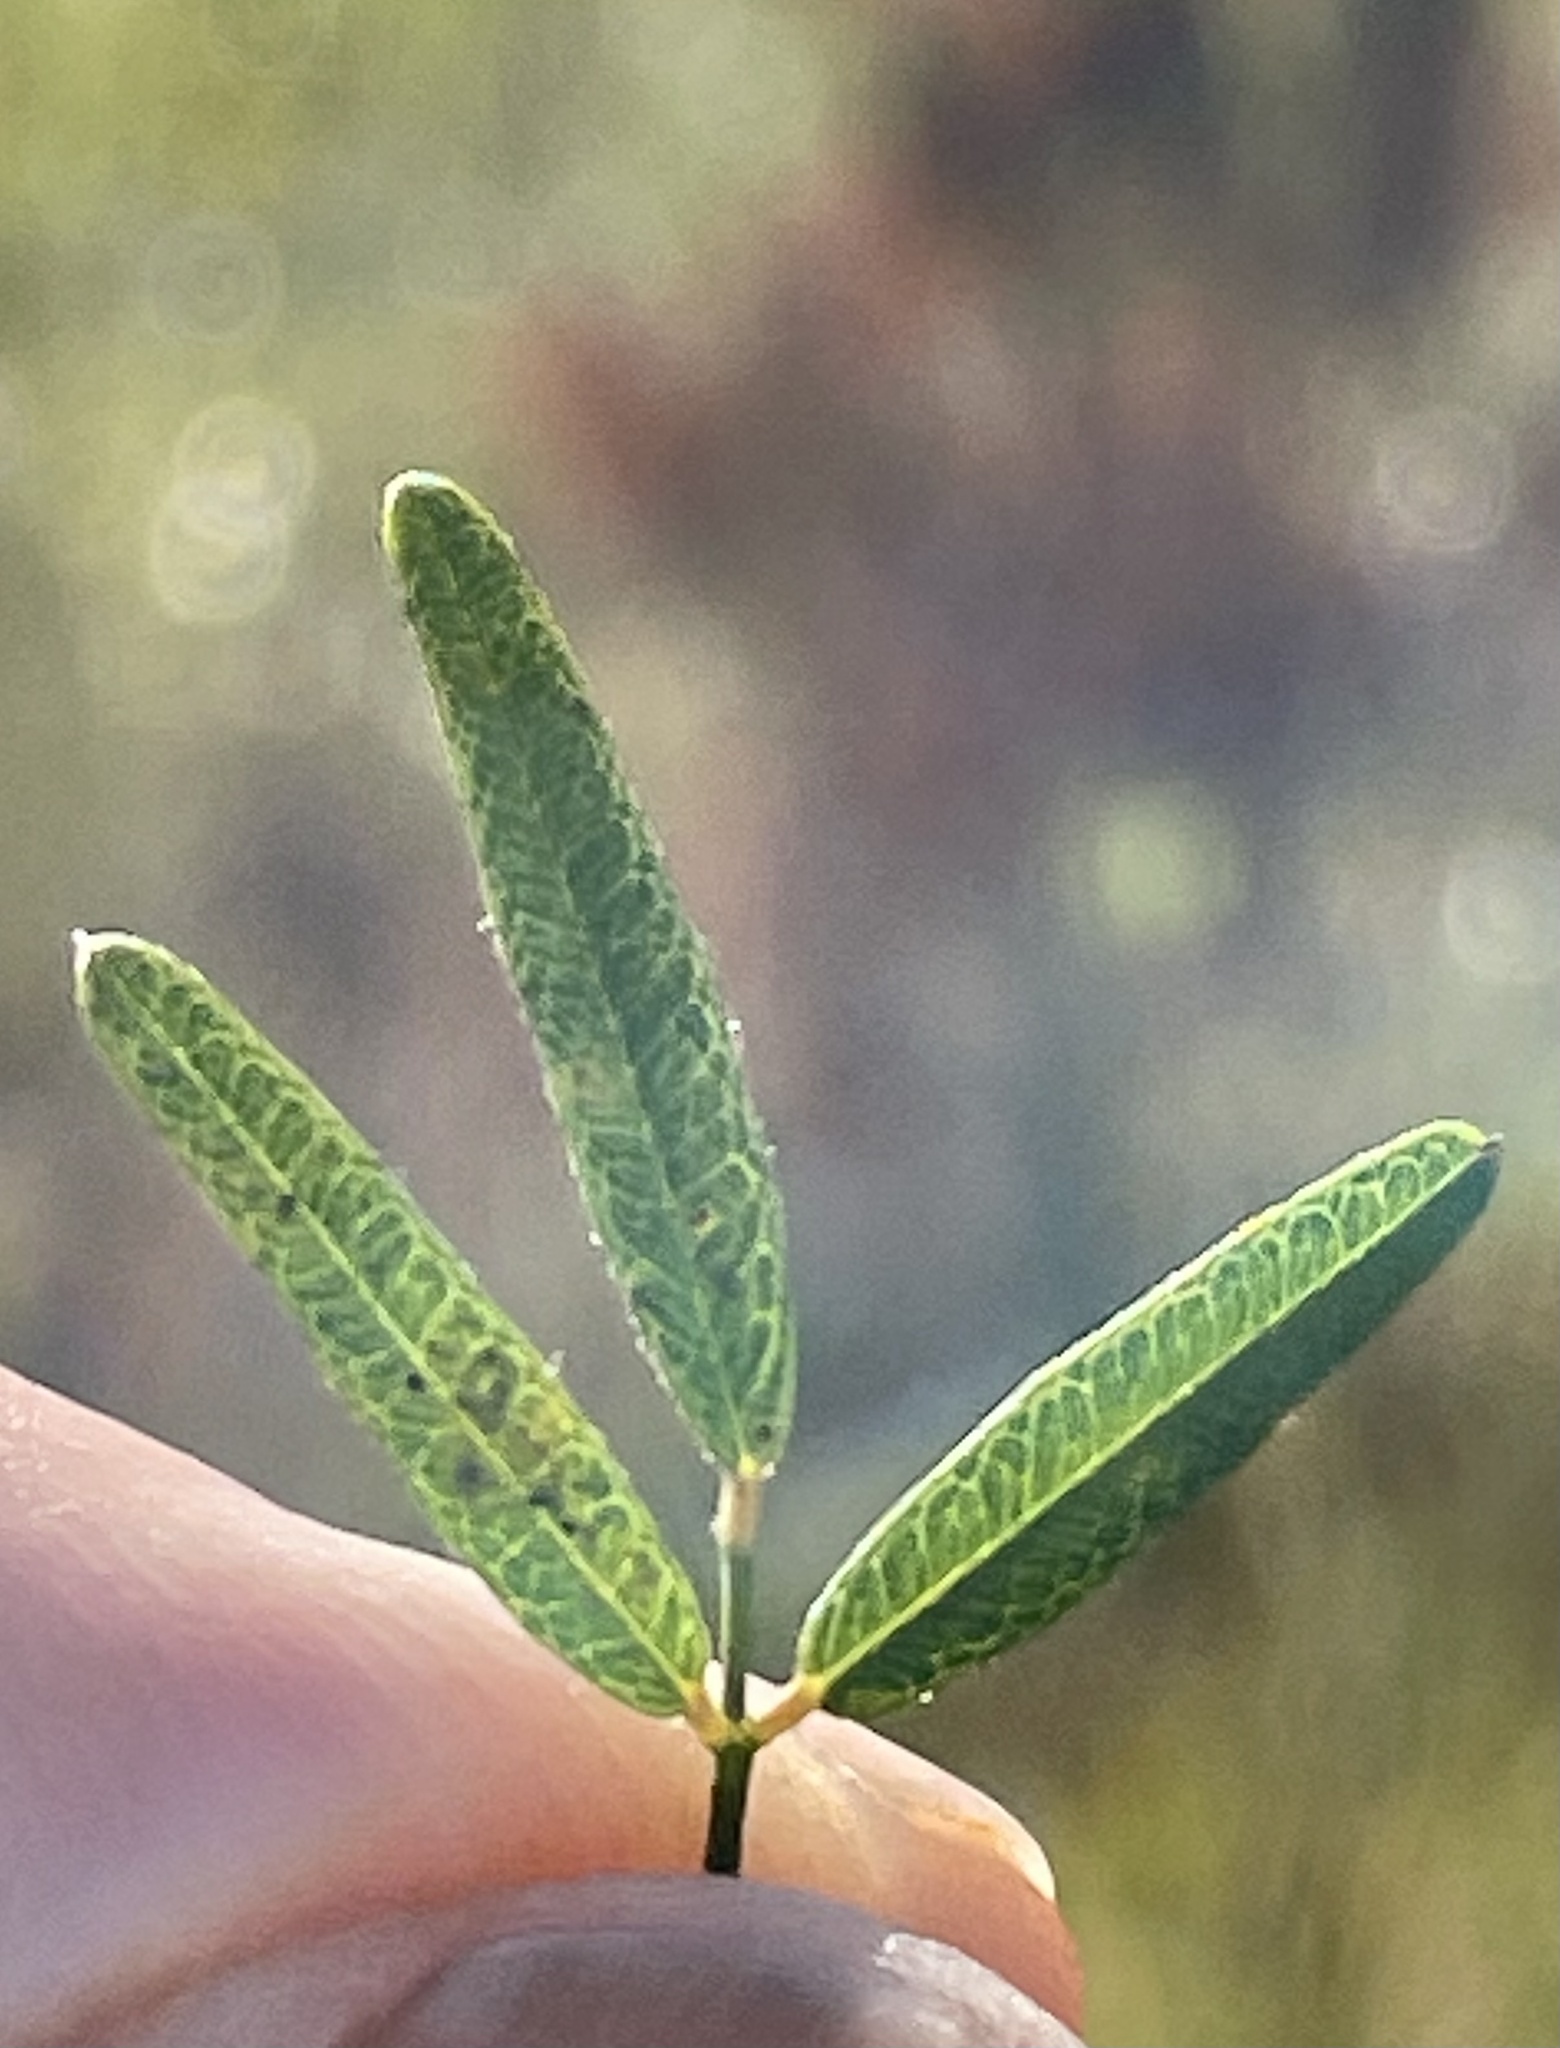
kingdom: Plantae
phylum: Tracheophyta
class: Magnoliopsida
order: Fabales
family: Fabaceae
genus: Lespedeza
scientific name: Lespedeza virginica
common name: Slender bush-clover
